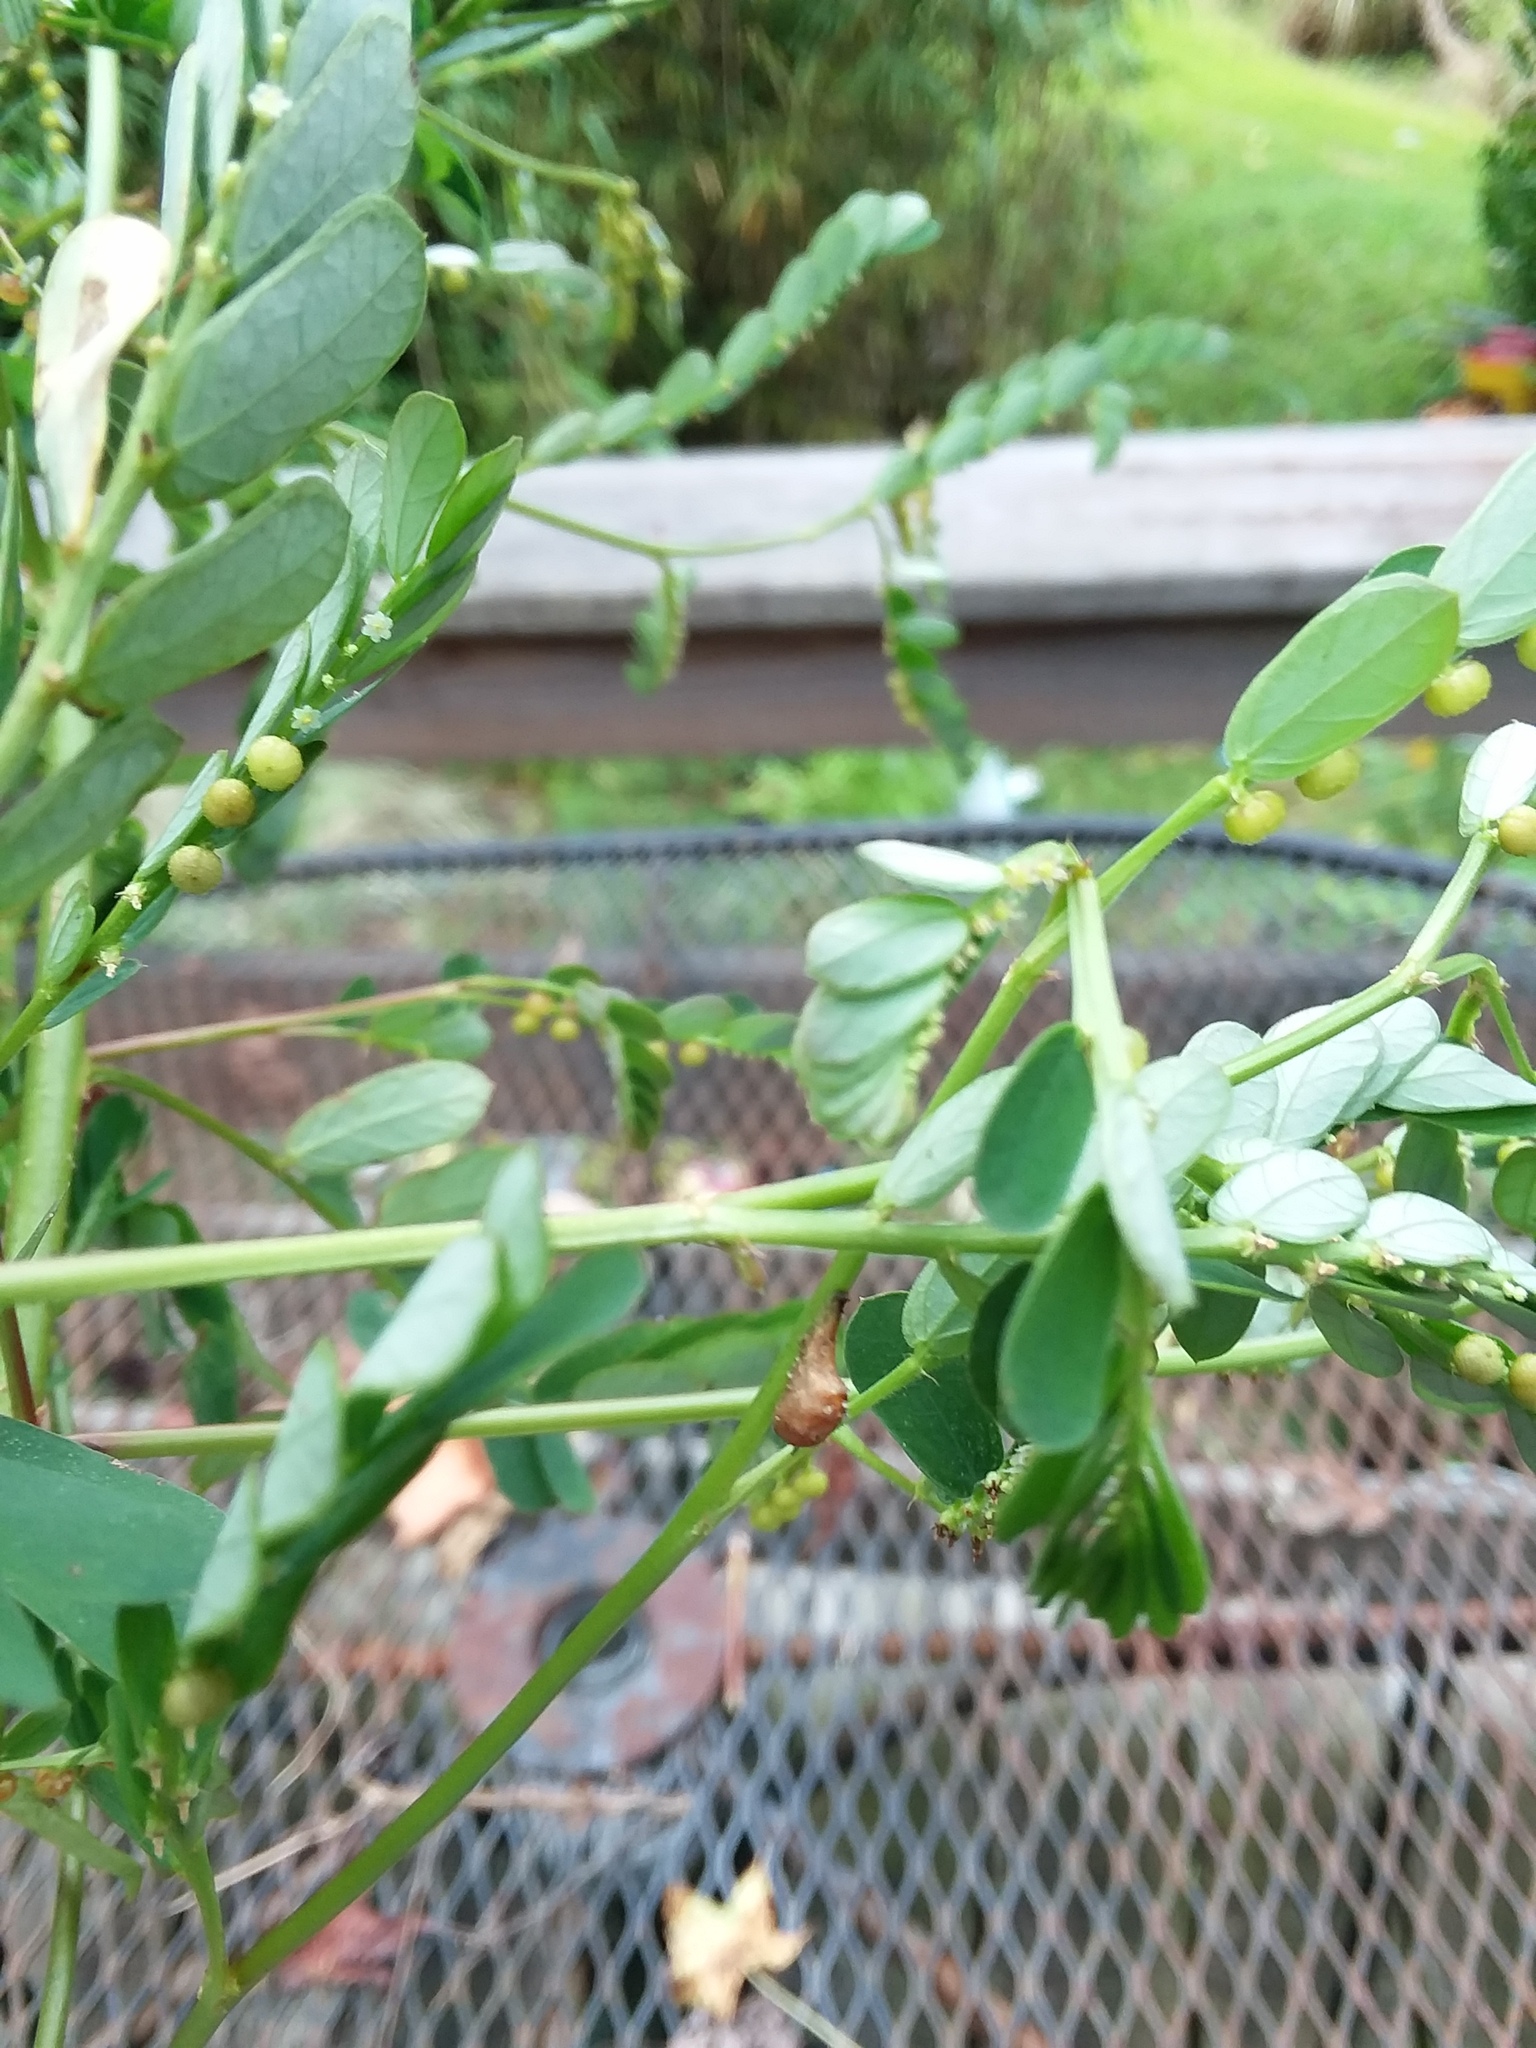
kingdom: Animalia
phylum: Arthropoda
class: Insecta
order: Diptera
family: Syrphidae
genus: Ocyptamus
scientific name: Ocyptamus fuscipennis
